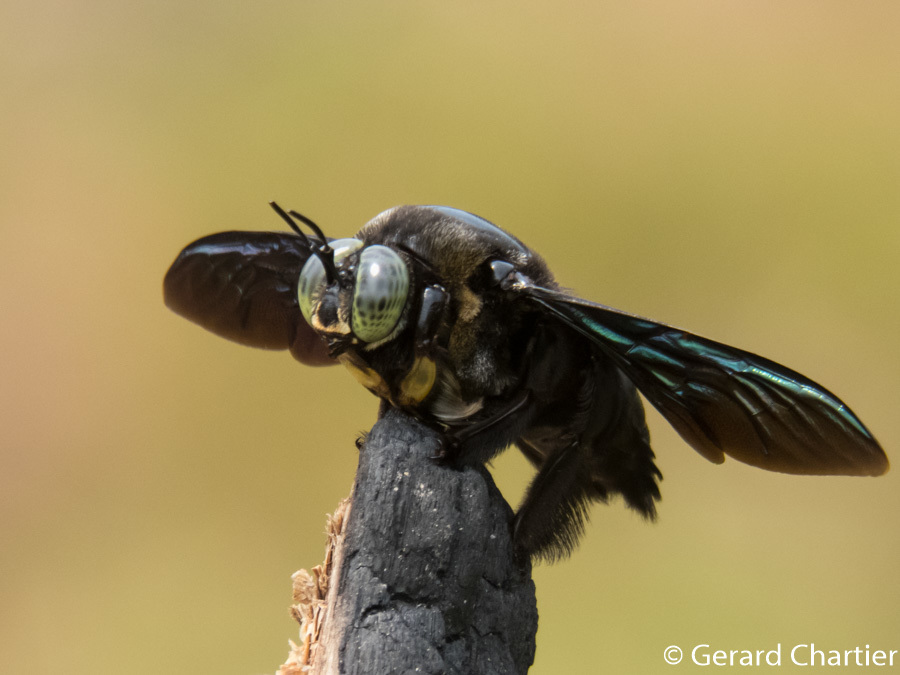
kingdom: Animalia
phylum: Arthropoda
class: Insecta
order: Hymenoptera
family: Apidae
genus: Xylocopa
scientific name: Xylocopa latipes
